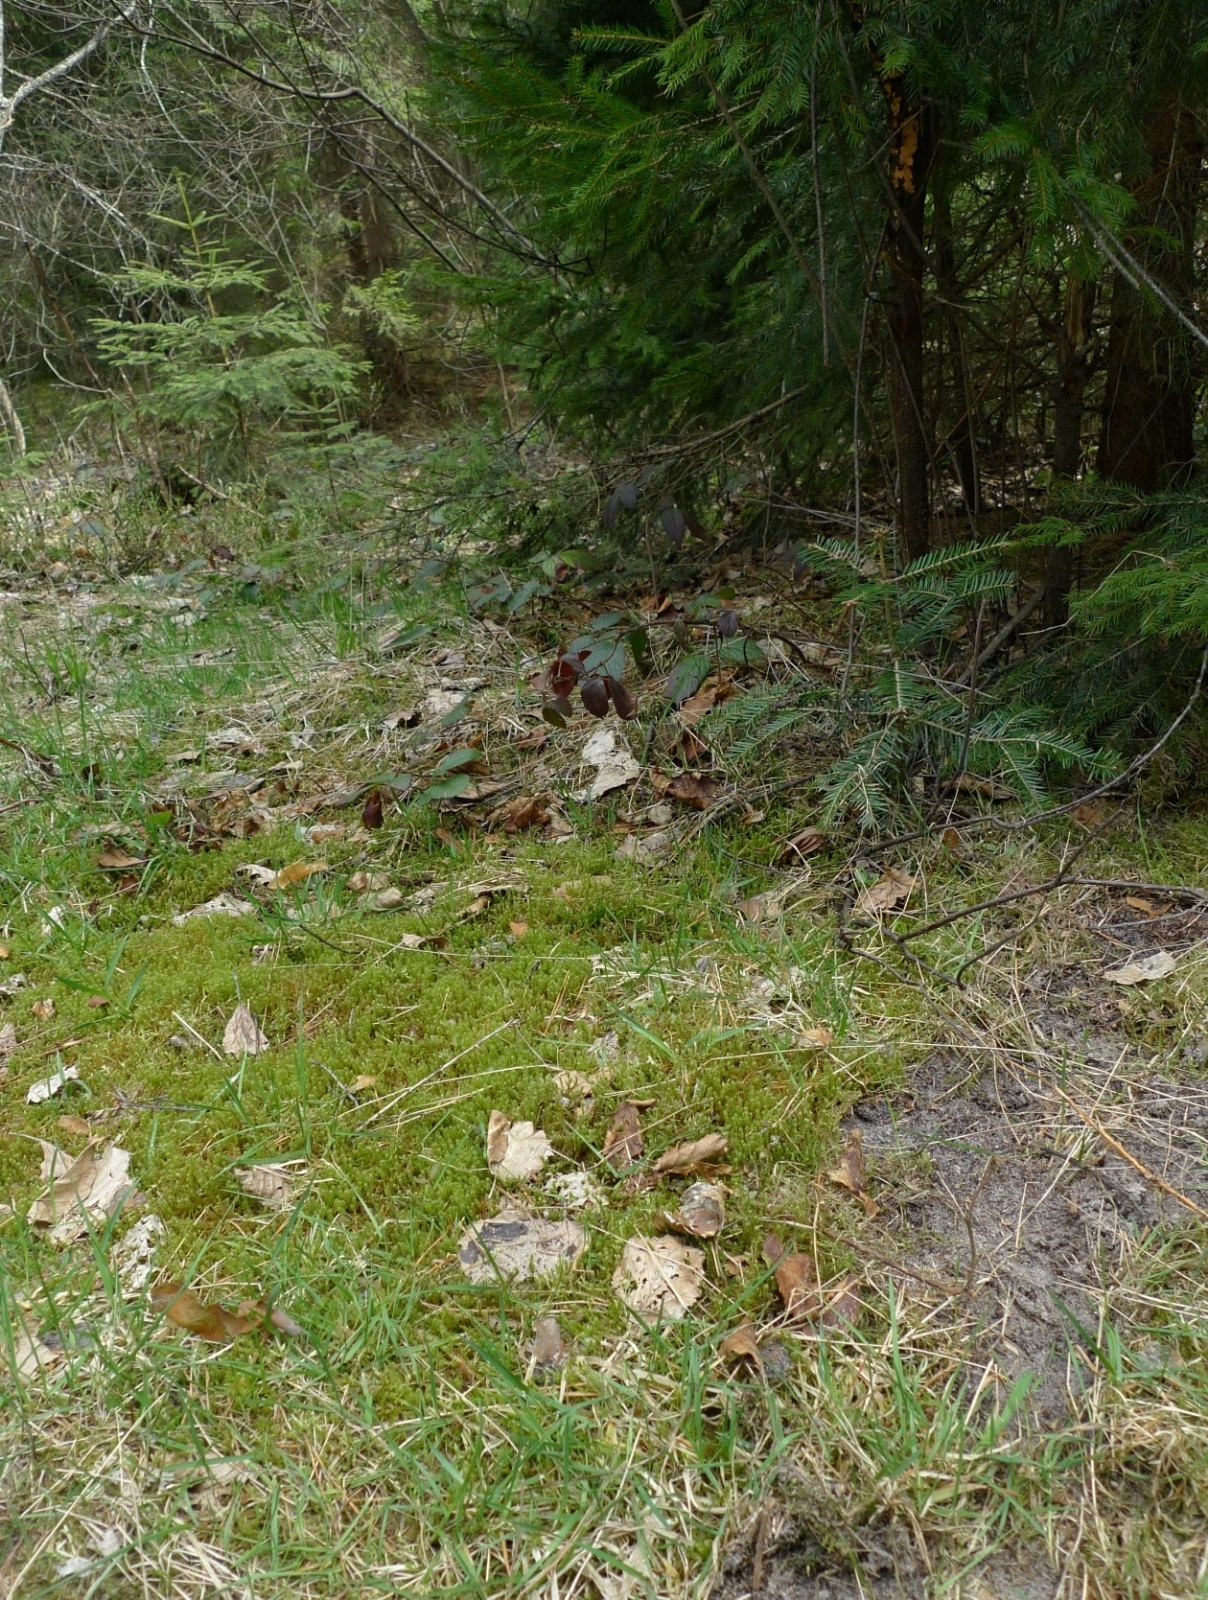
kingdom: Plantae
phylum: Bryophyta
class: Bryopsida
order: Hypnales
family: Hylocomiaceae
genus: Rhytidiadelphus
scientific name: Rhytidiadelphus squarrosus
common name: Springy turf-moss
